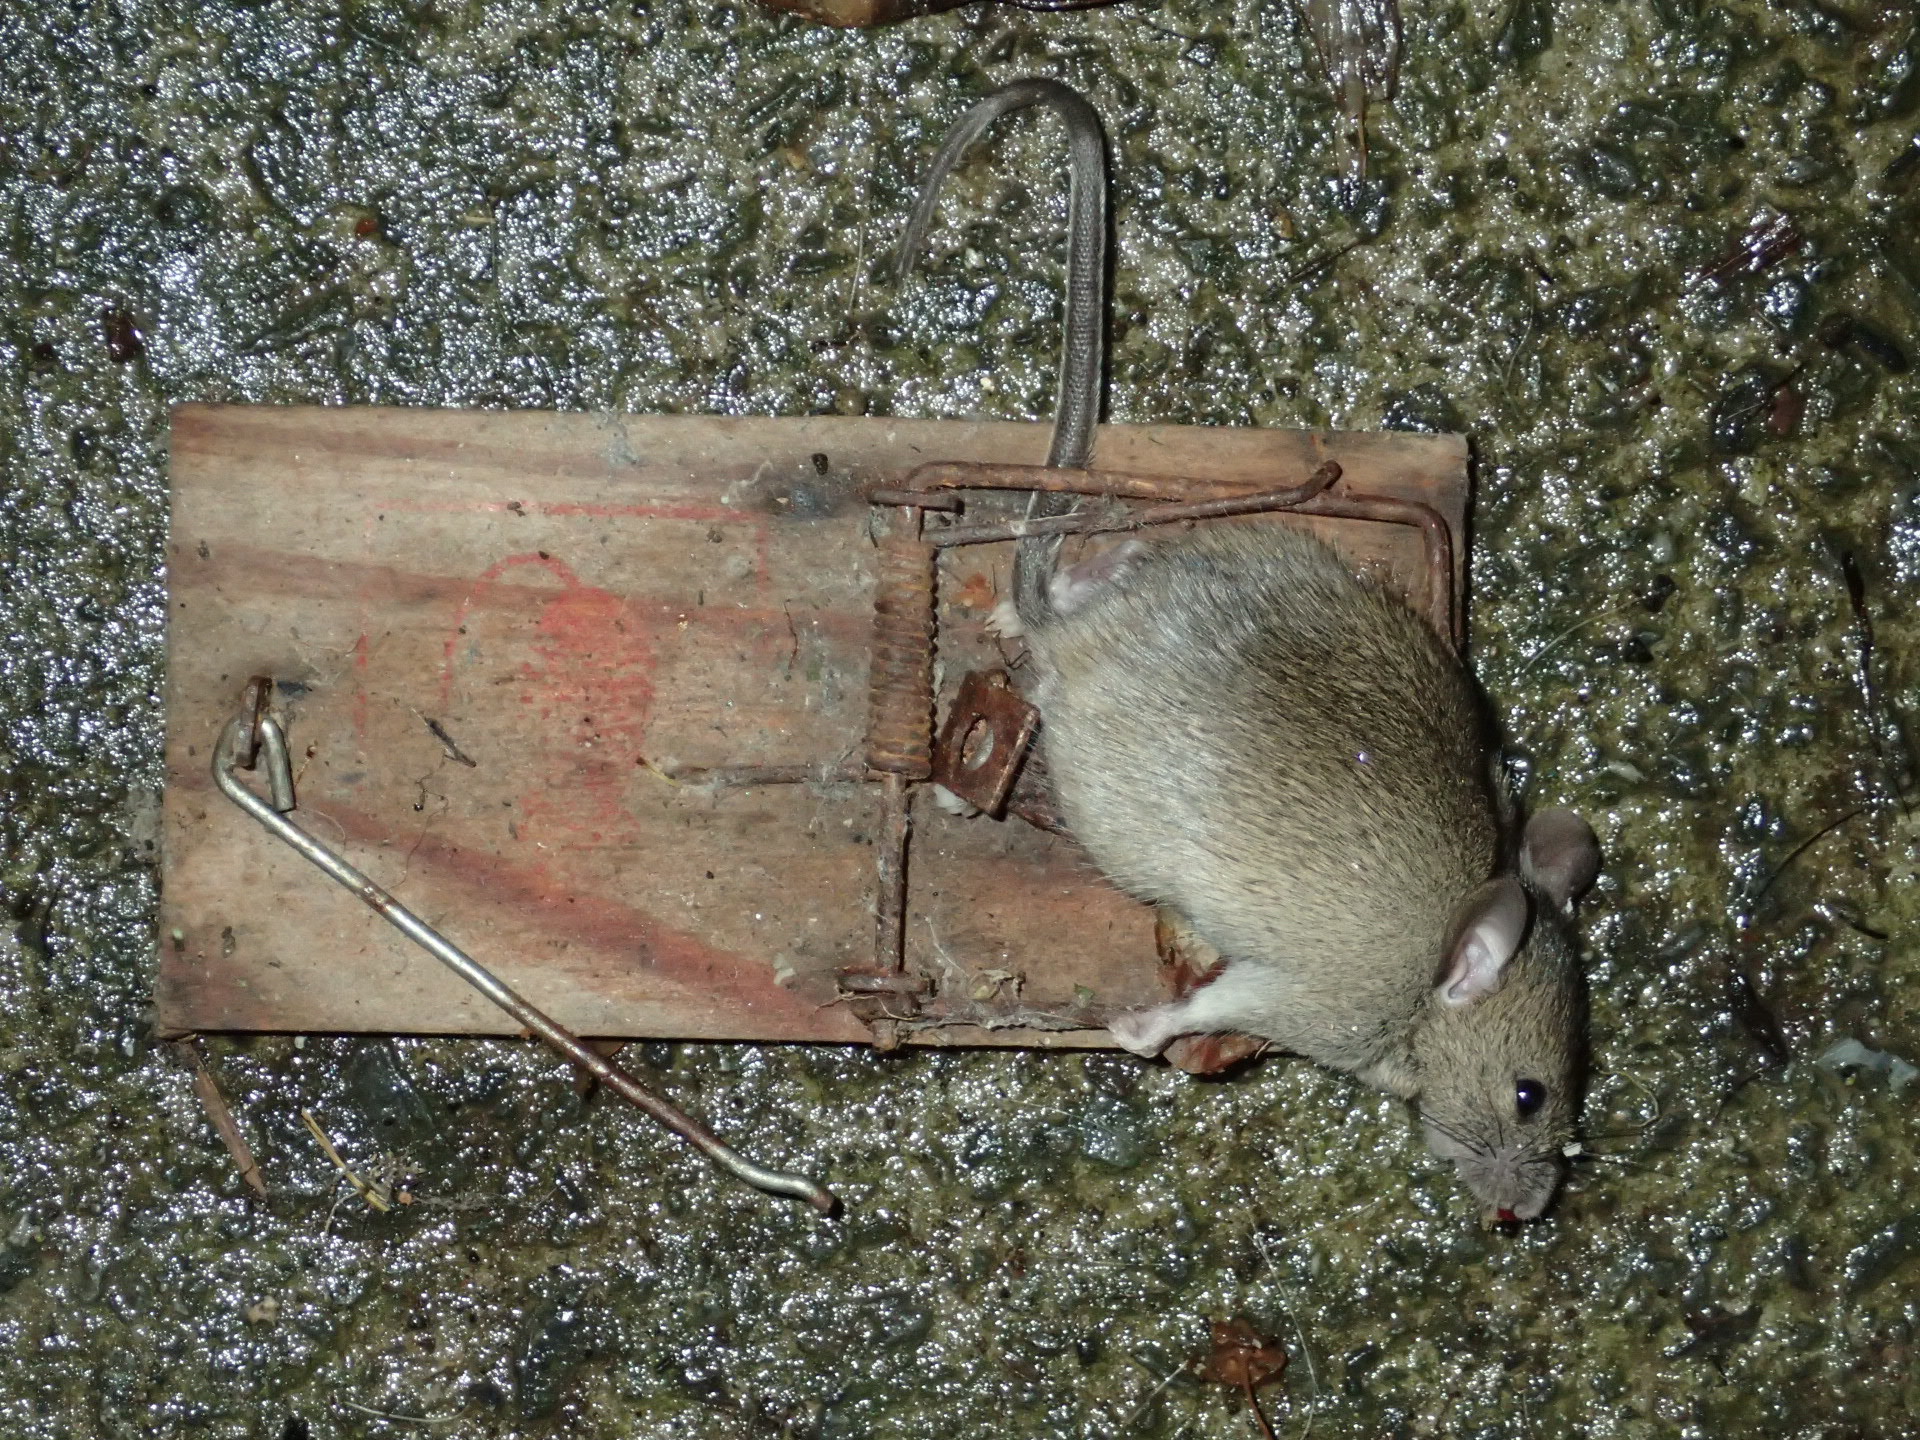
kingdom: Animalia
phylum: Chordata
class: Mammalia
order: Rodentia
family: Muridae
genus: Mus
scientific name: Mus musculus
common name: House mouse
